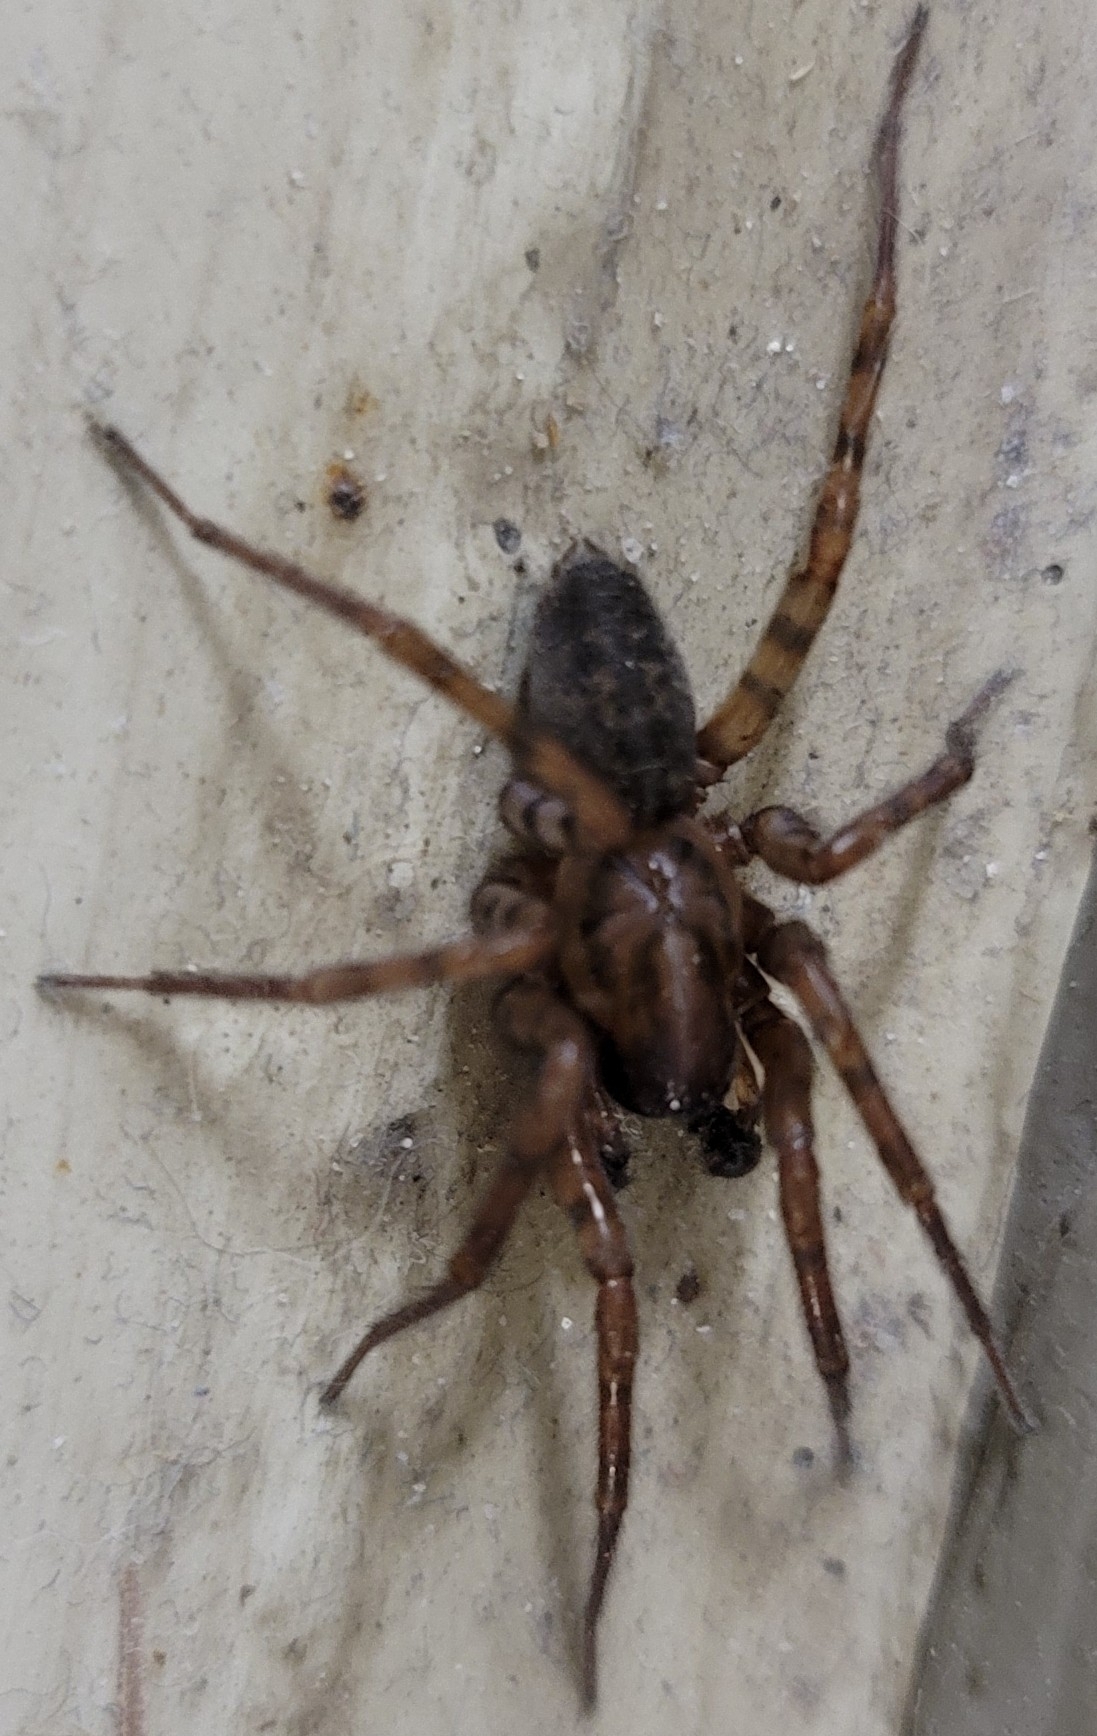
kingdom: Animalia
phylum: Arthropoda
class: Arachnida
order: Araneae
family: Agelenidae
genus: Coras
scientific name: Coras
